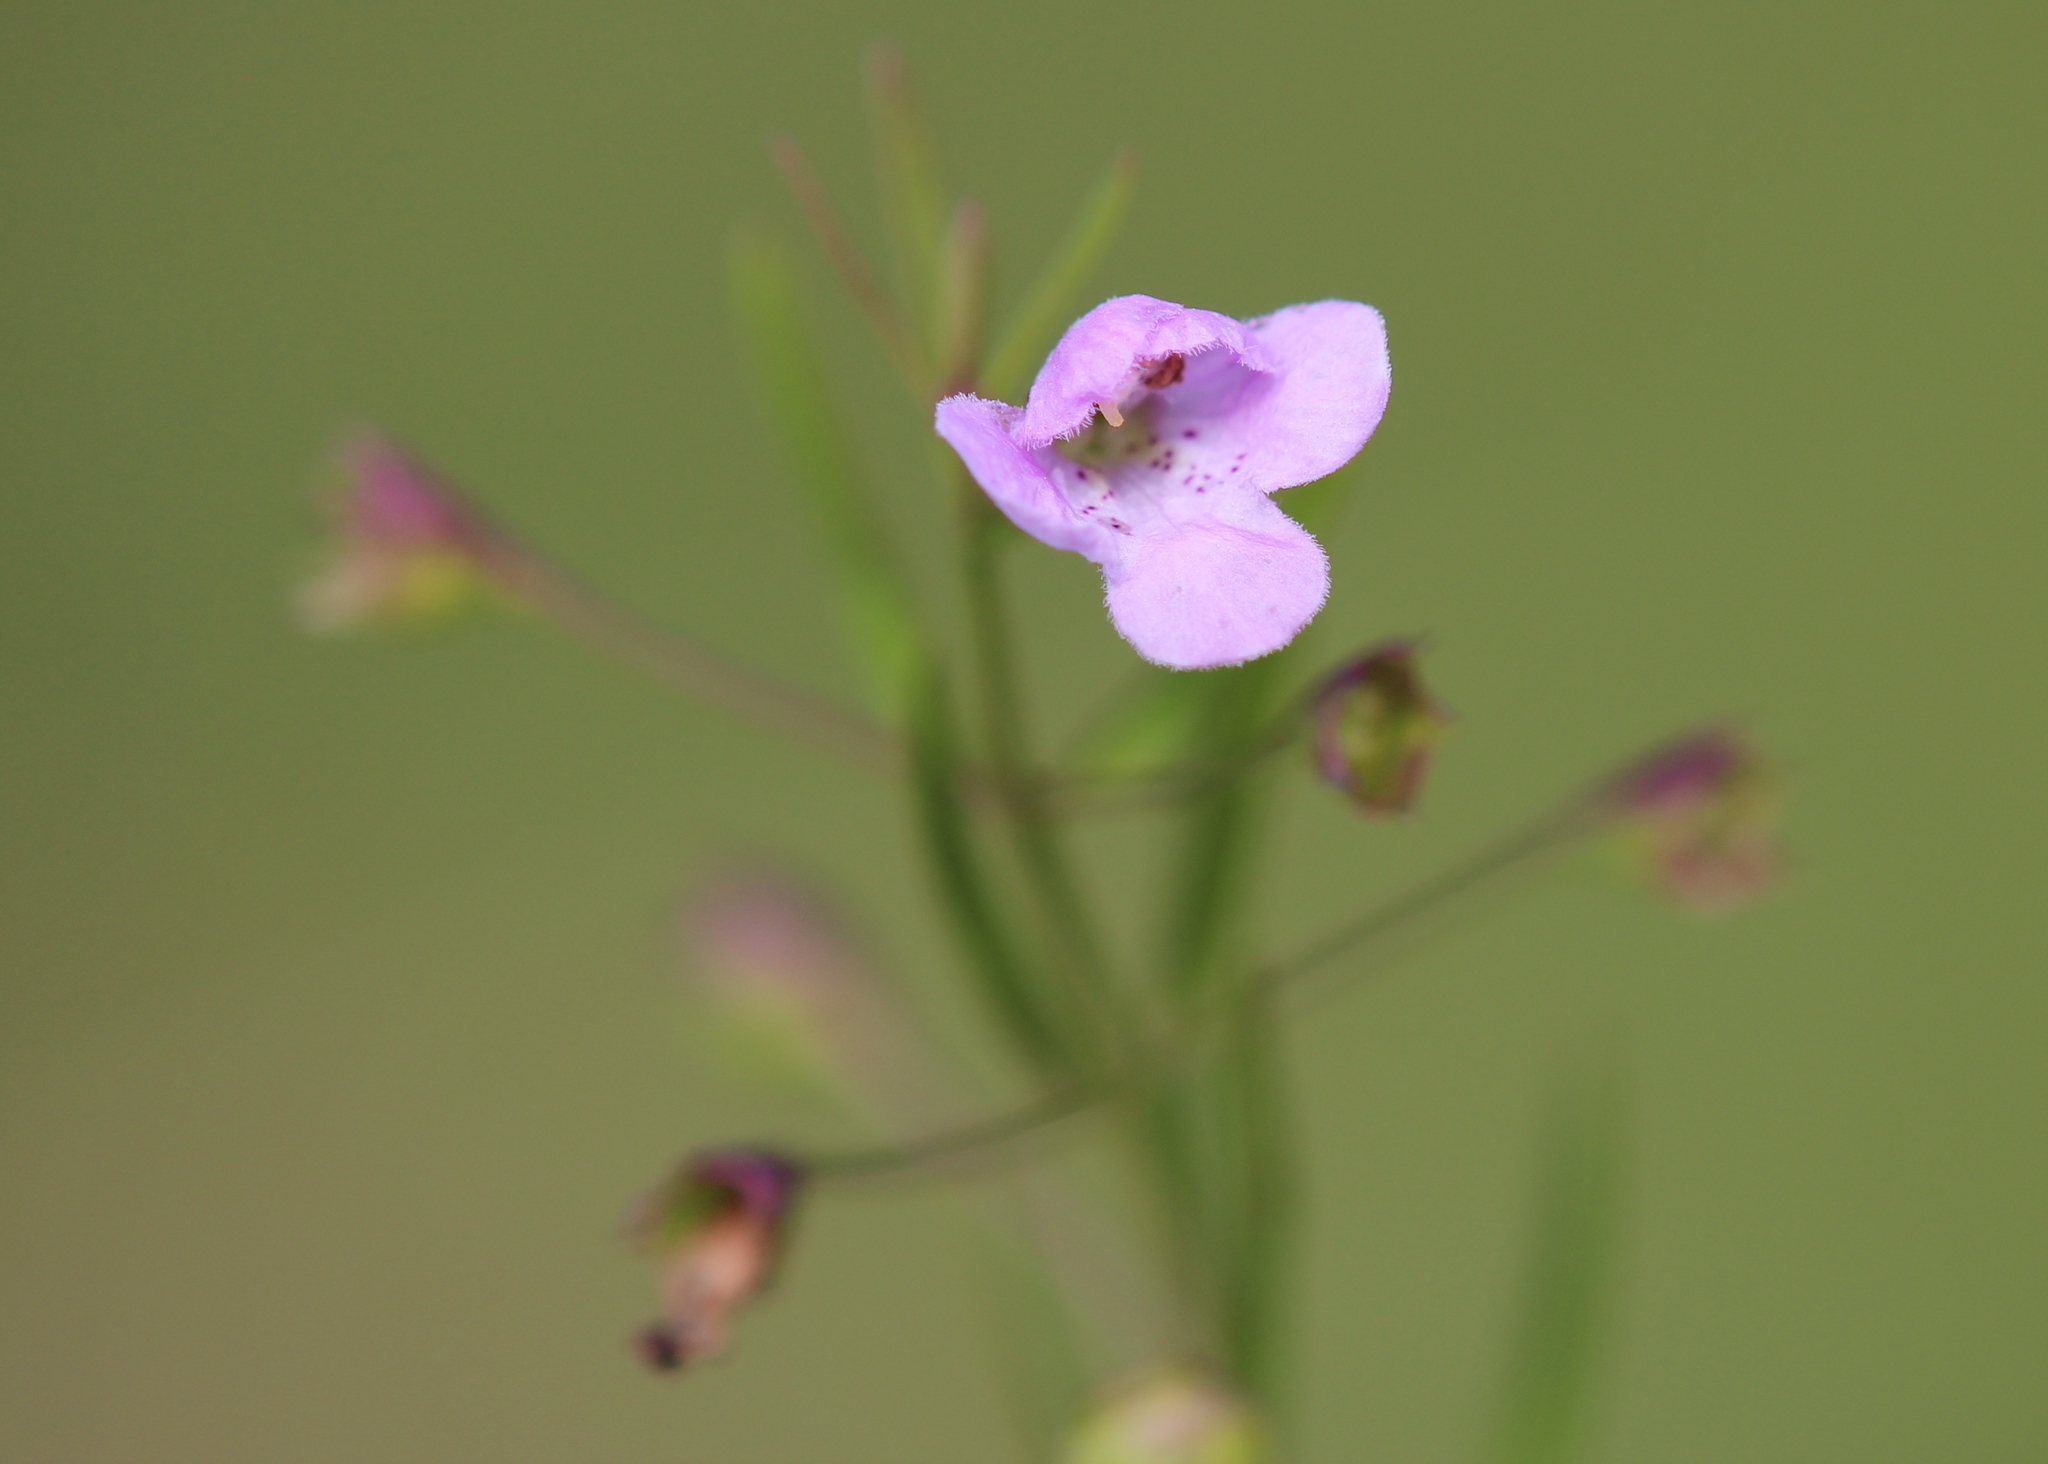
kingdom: Plantae
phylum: Tracheophyta
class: Magnoliopsida
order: Lamiales
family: Orobanchaceae
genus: Agalinis
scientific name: Agalinis tenuifolia
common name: Slender agalinis
